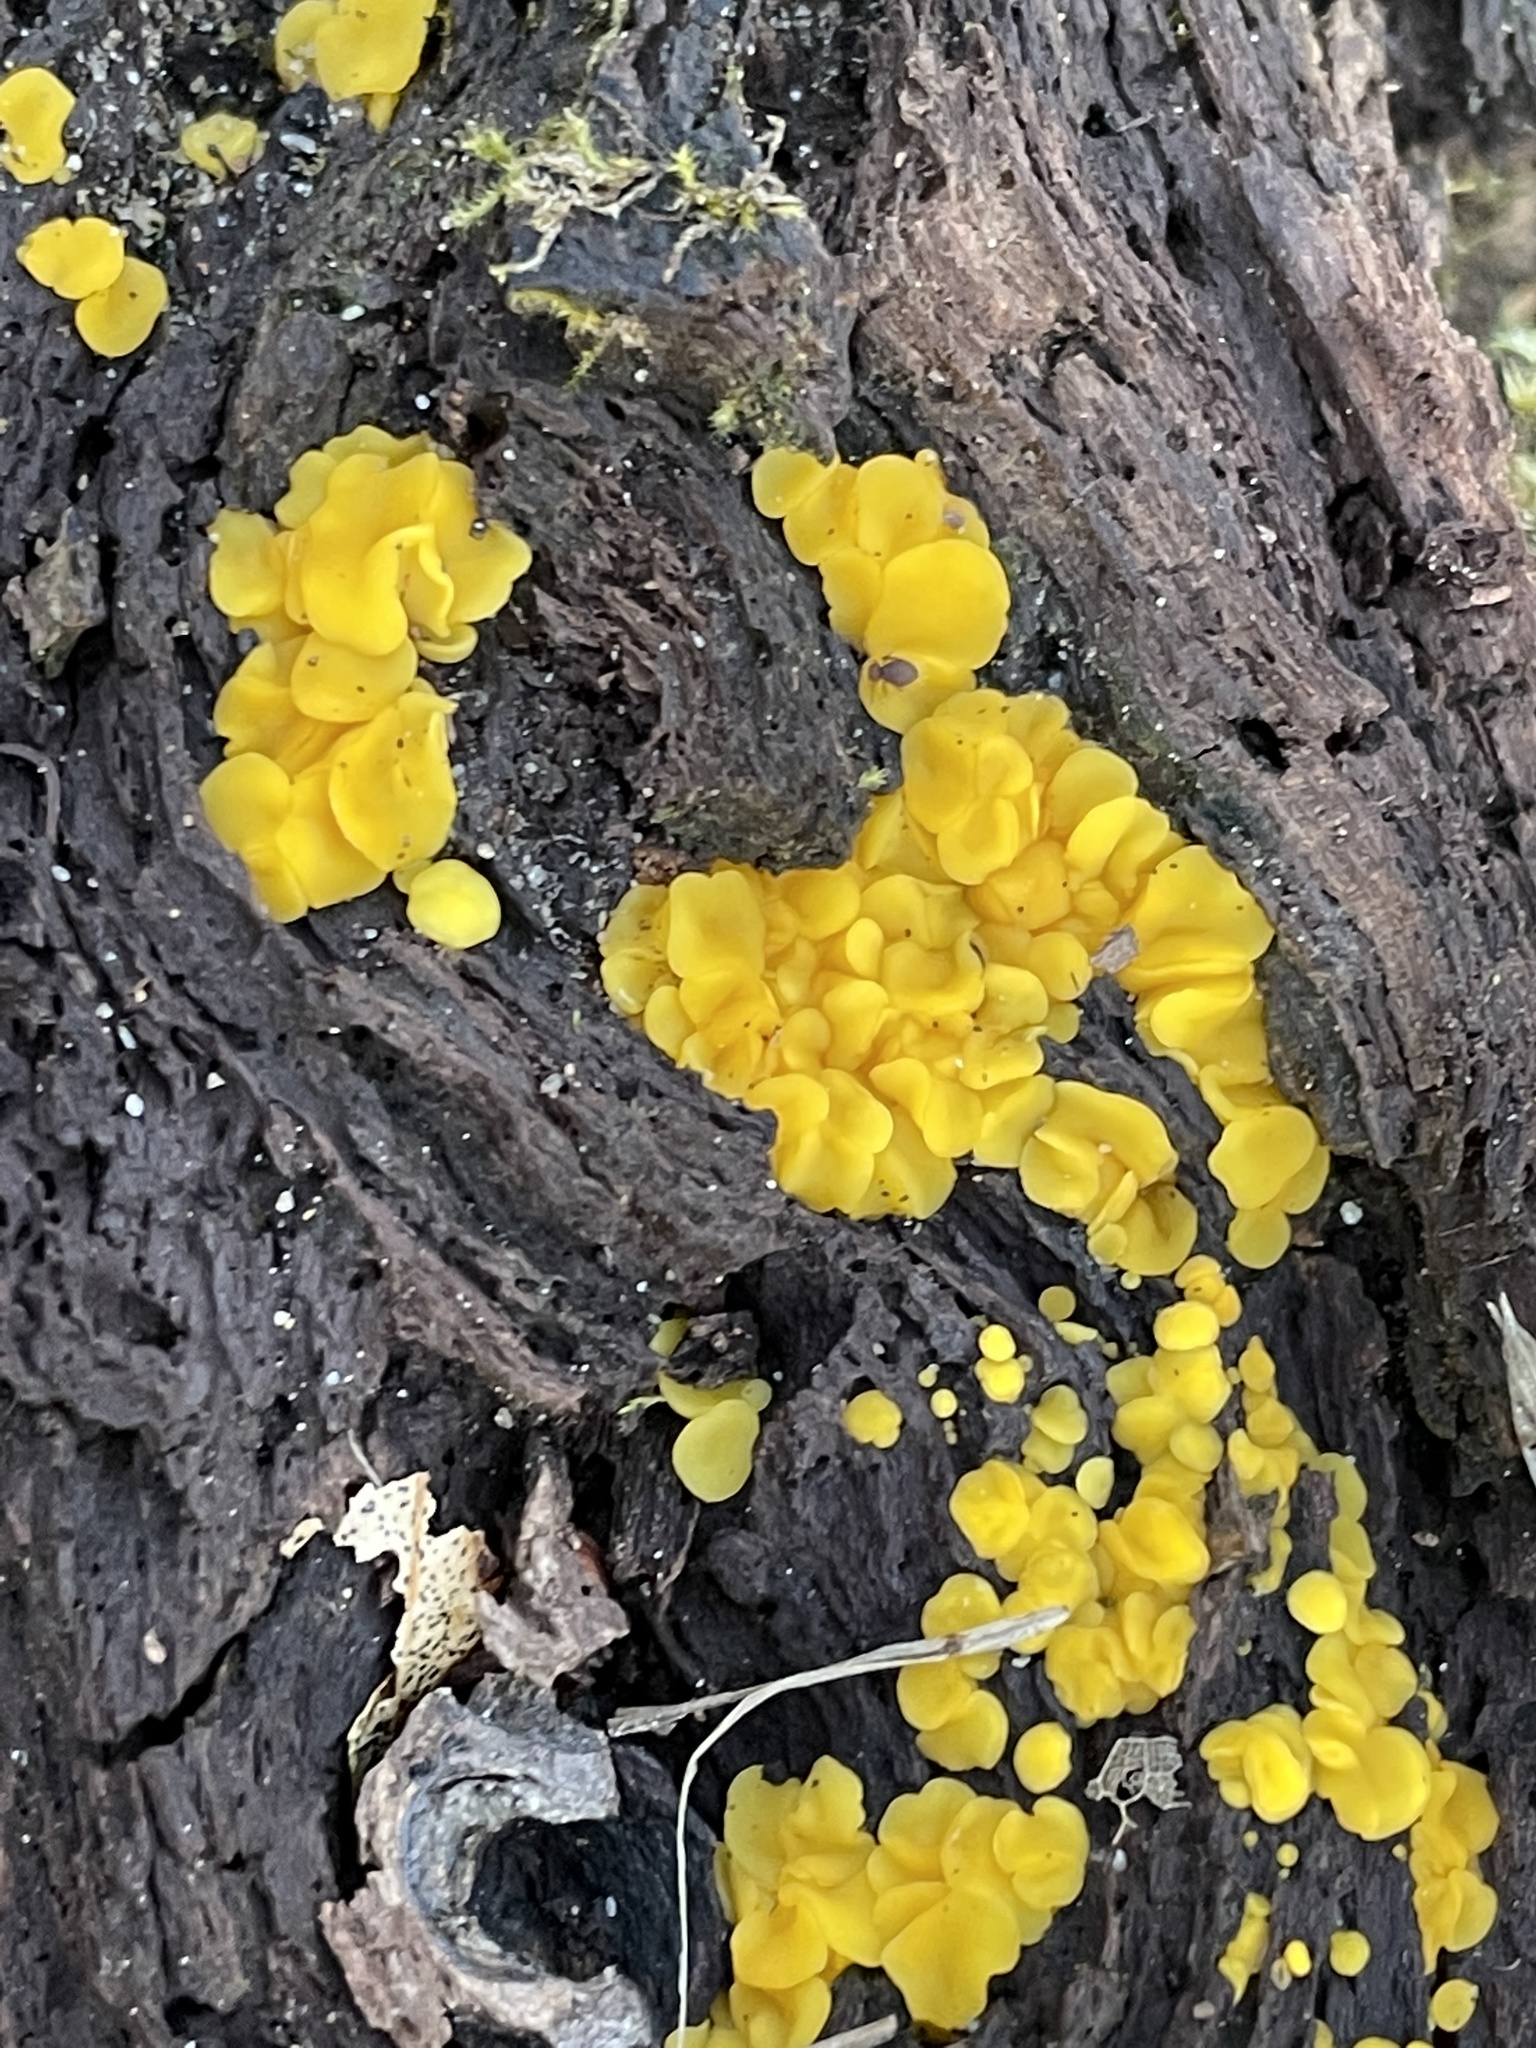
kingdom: Fungi
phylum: Ascomycota
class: Leotiomycetes
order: Helotiales
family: Pezizellaceae
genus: Calycina
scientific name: Calycina citrina
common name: Yellow fairy cups
